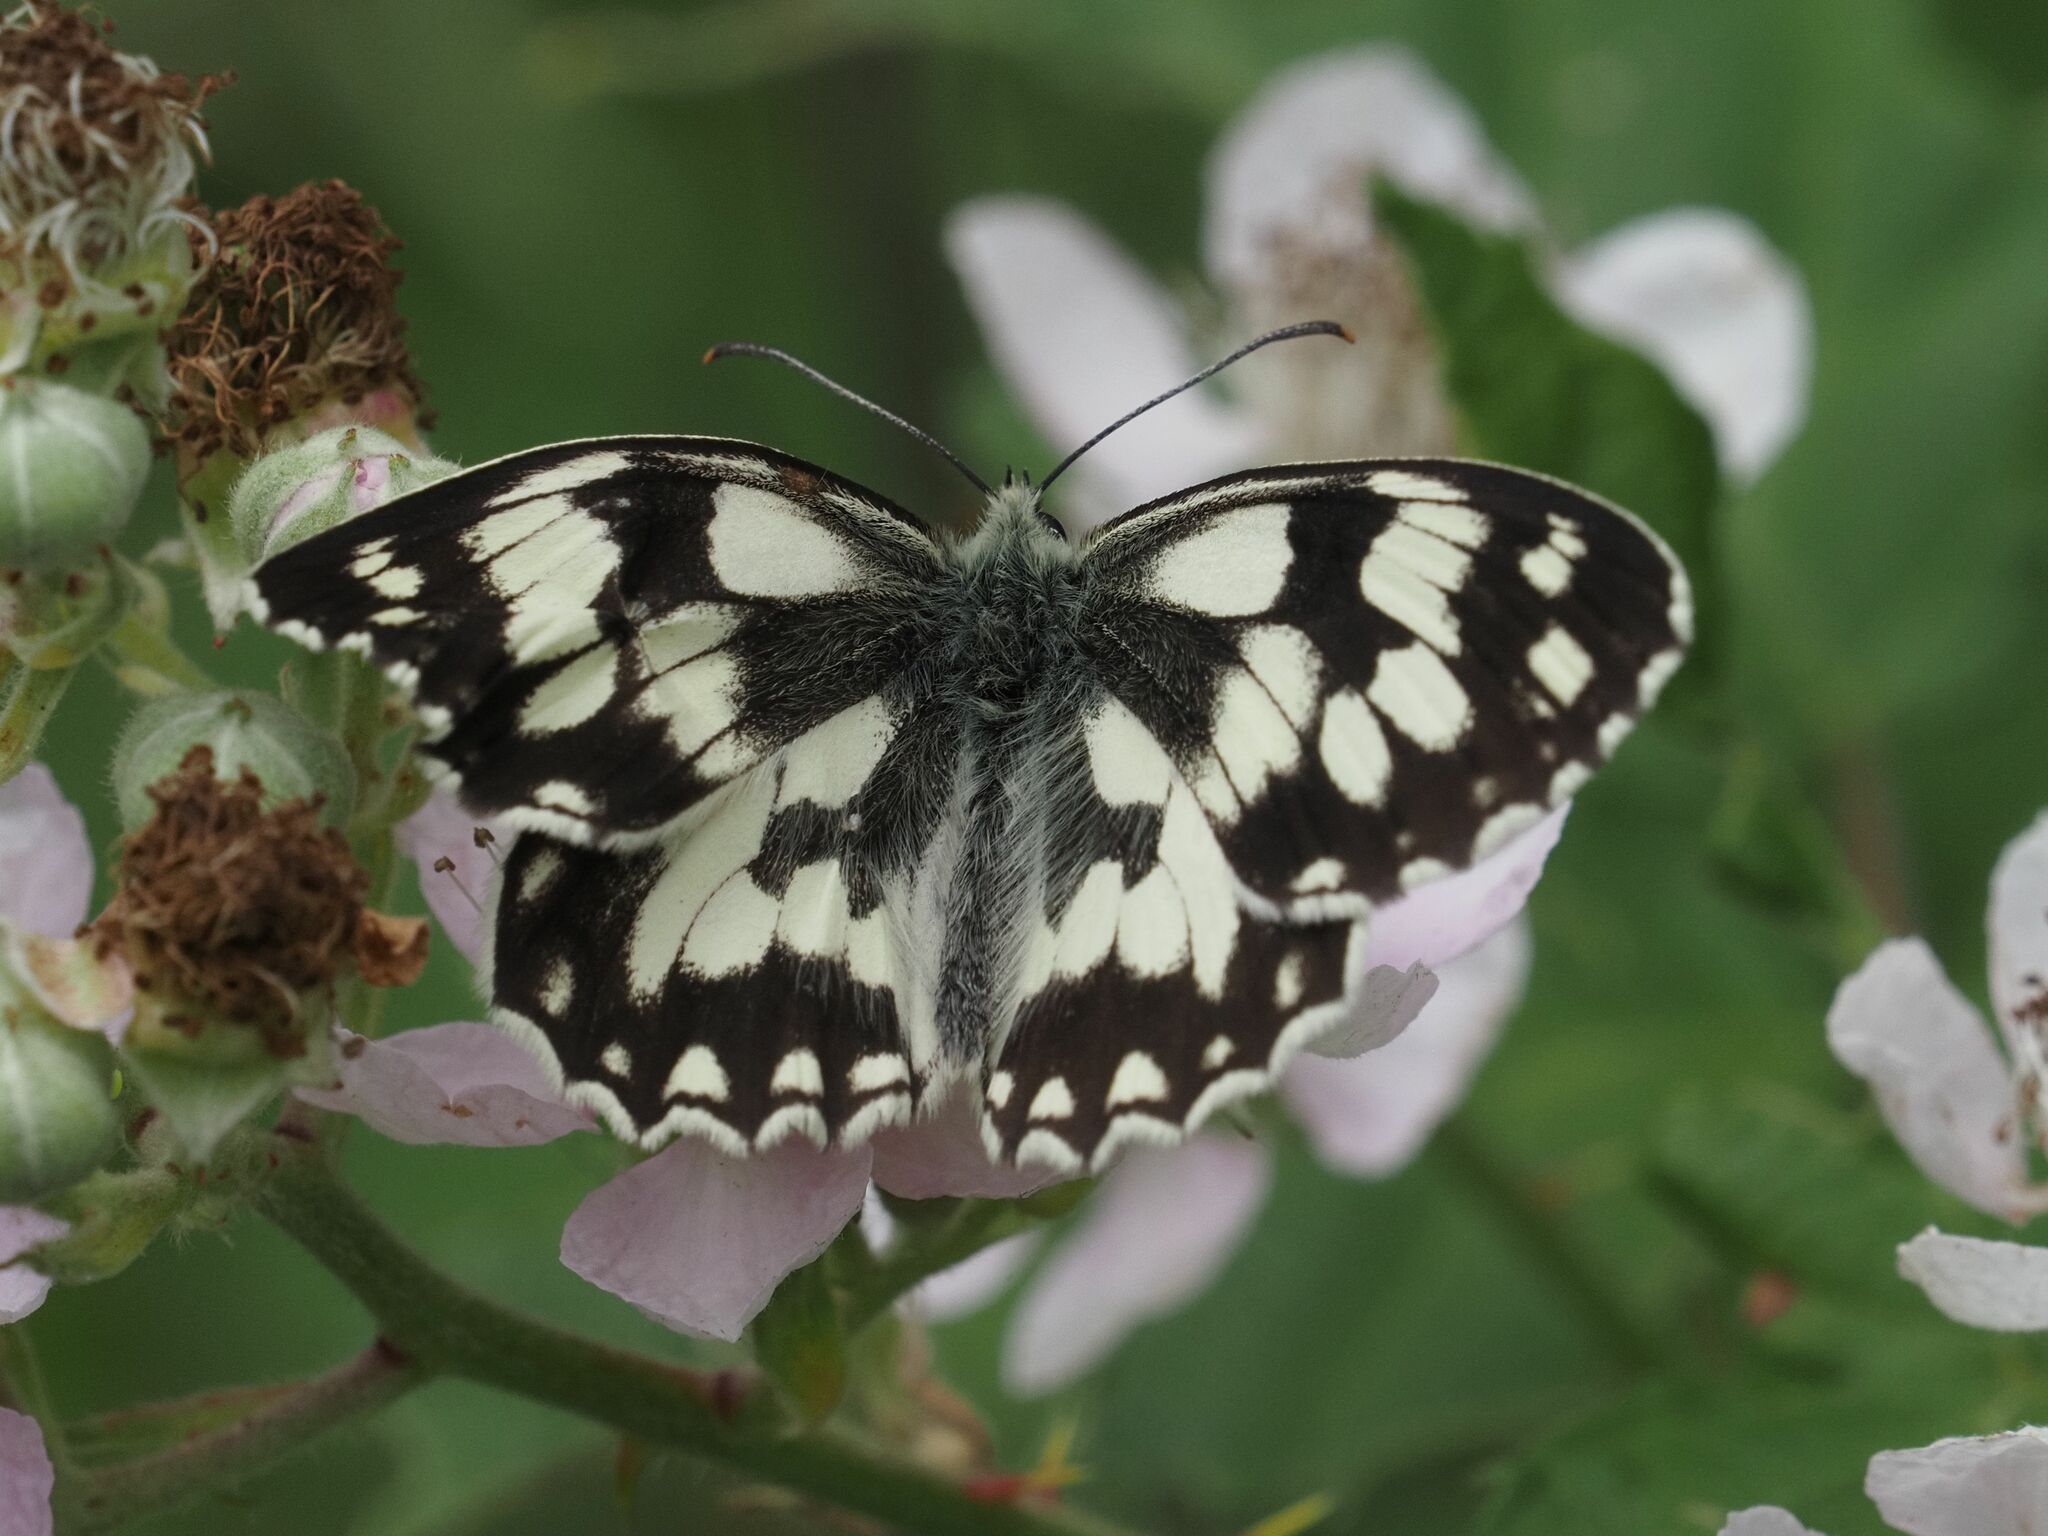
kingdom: Animalia
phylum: Arthropoda
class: Insecta
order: Lepidoptera
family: Nymphalidae
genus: Melanargia
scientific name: Melanargia galathea
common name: Marbled white
